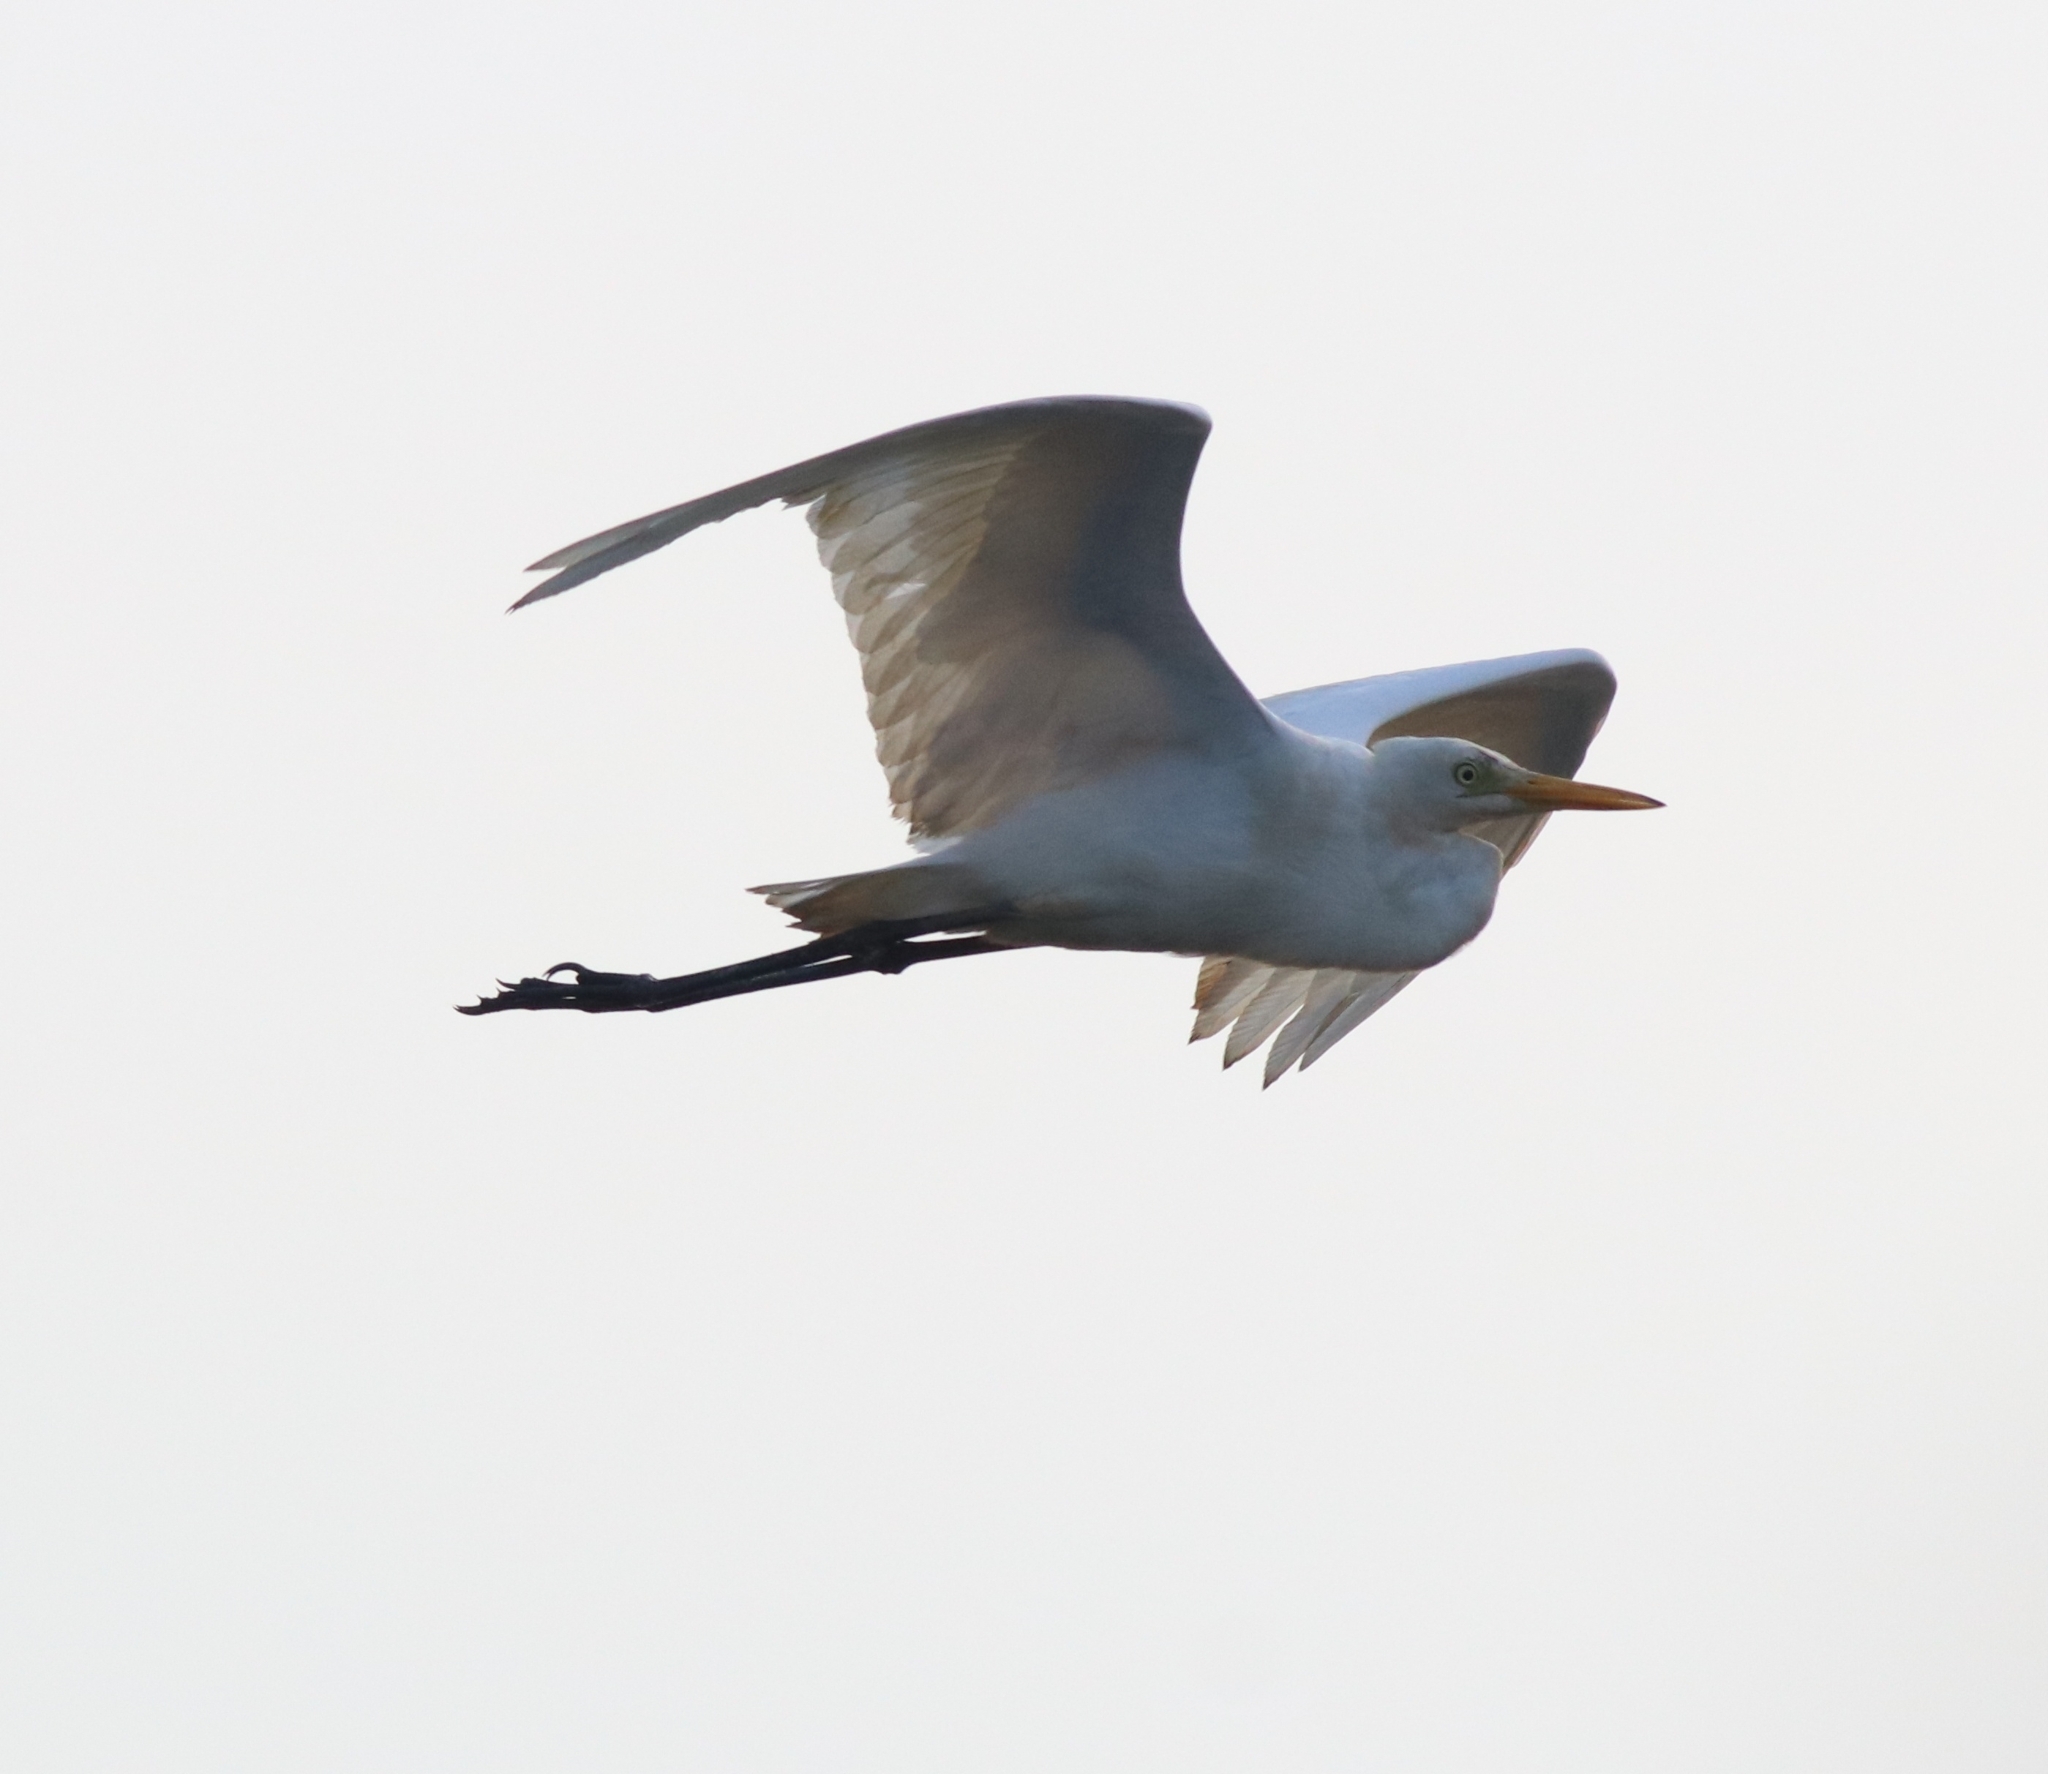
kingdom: Animalia
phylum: Chordata
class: Aves
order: Pelecaniformes
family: Ardeidae
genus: Bubulcus
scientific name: Bubulcus coromandus
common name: Eastern cattle egret
